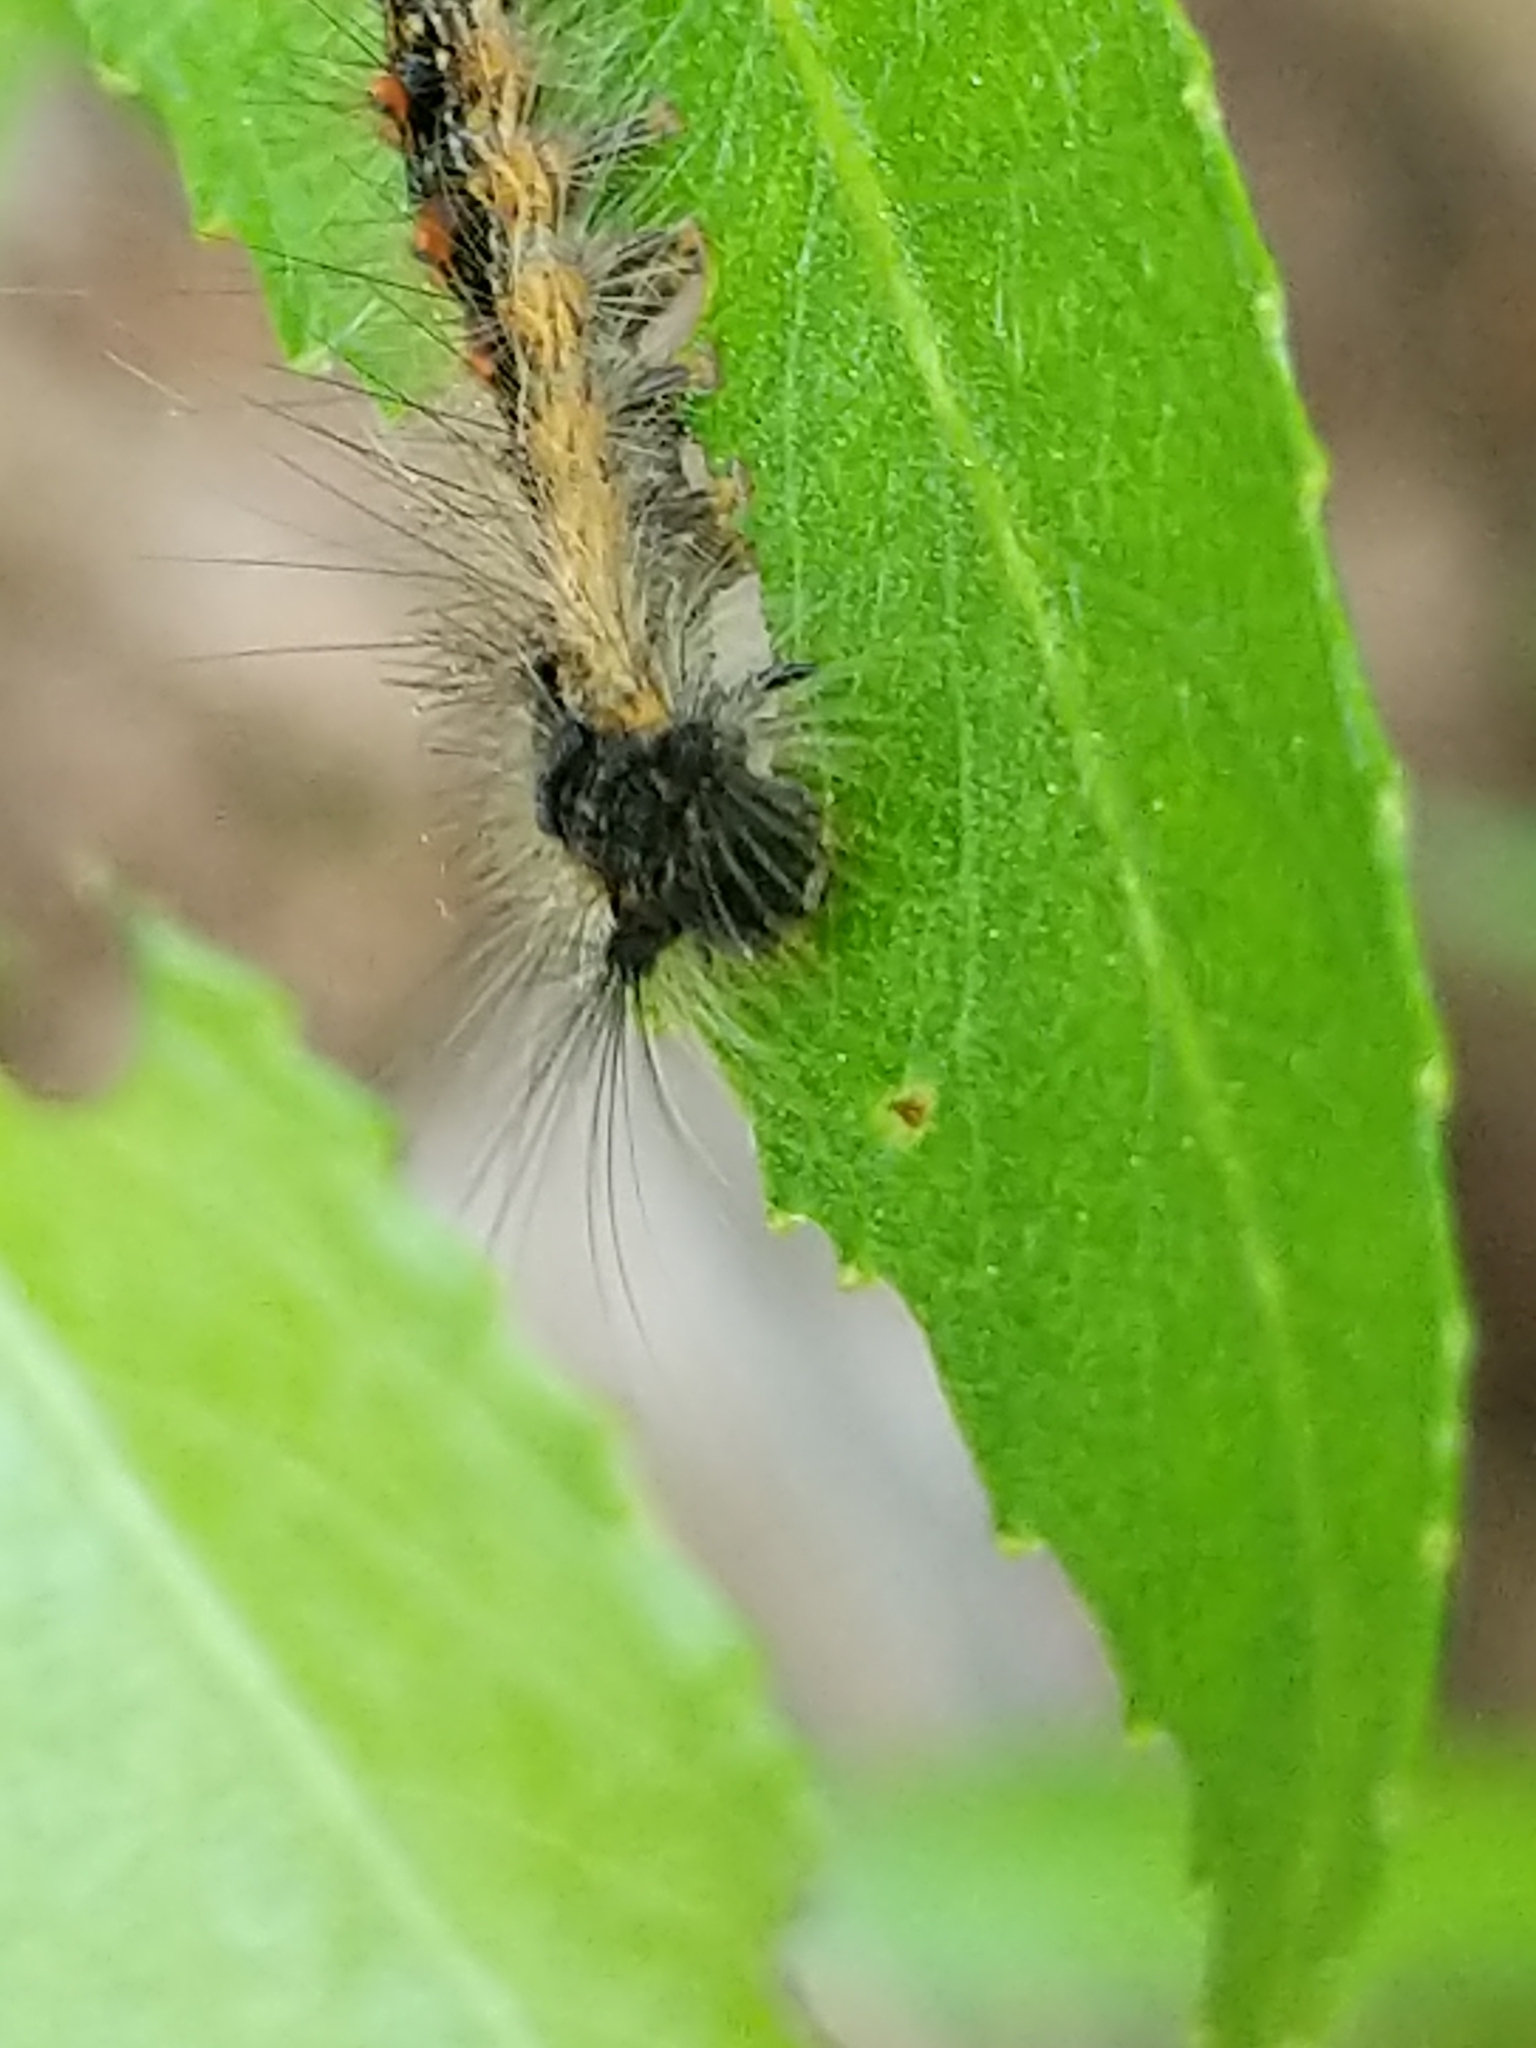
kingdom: Animalia
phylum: Arthropoda
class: Insecta
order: Lepidoptera
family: Erebidae
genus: Lymantria
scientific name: Lymantria dispar
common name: Gypsy moth
